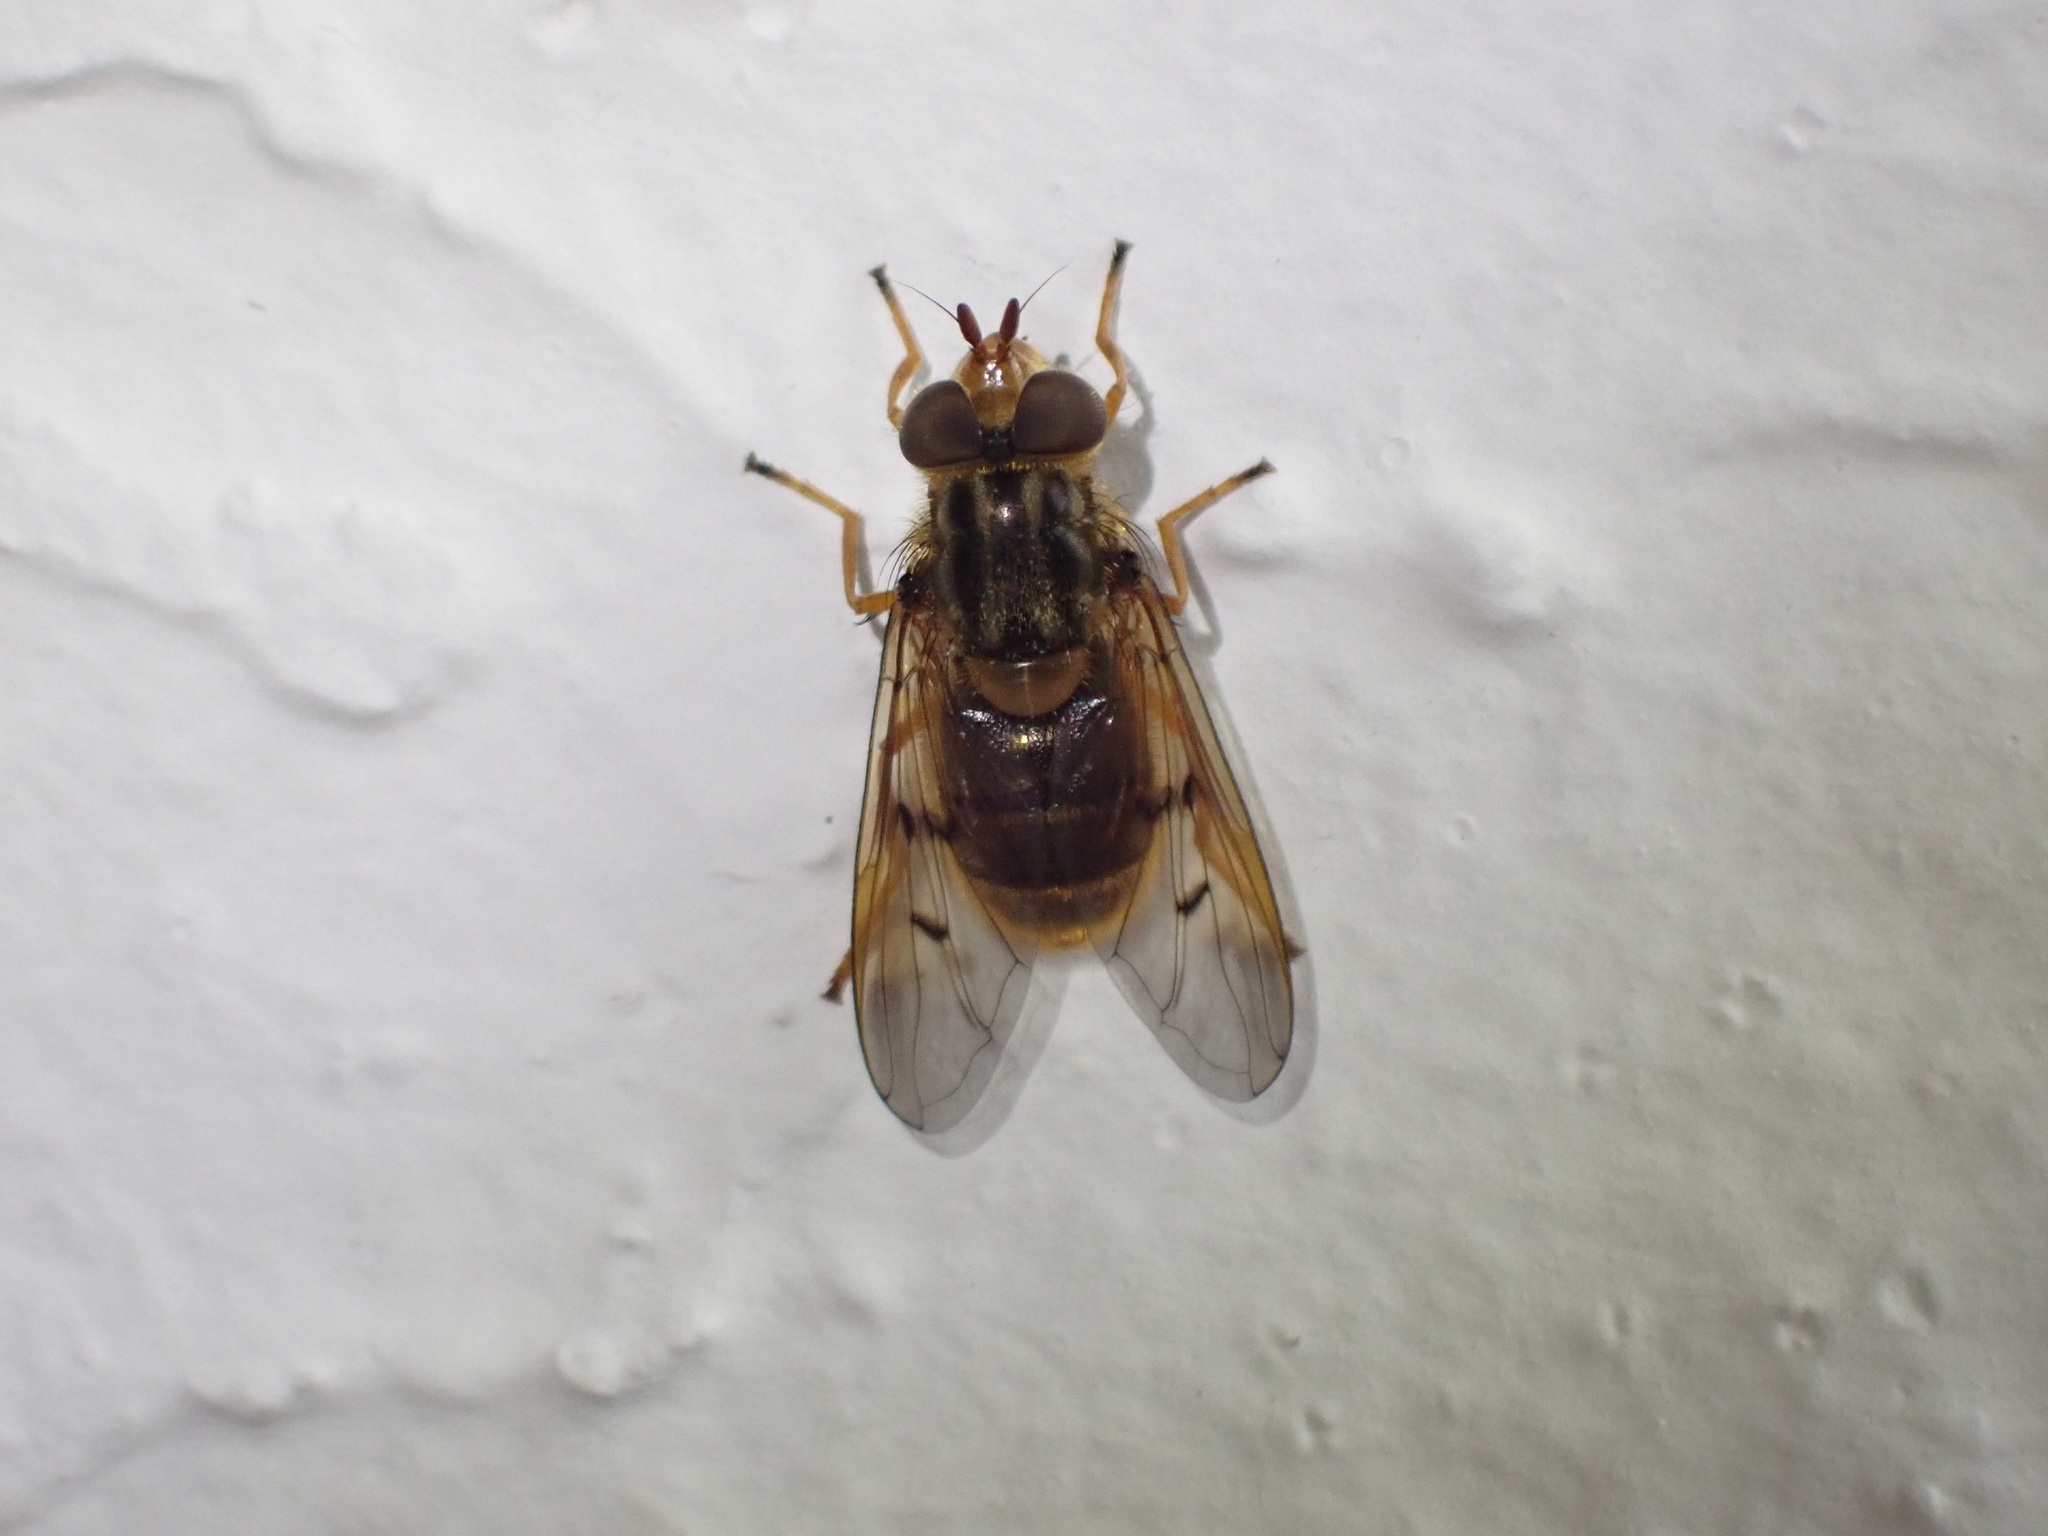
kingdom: Animalia
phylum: Arthropoda
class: Insecta
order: Diptera
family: Syrphidae
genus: Ferdinandea
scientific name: Ferdinandea cuprea
